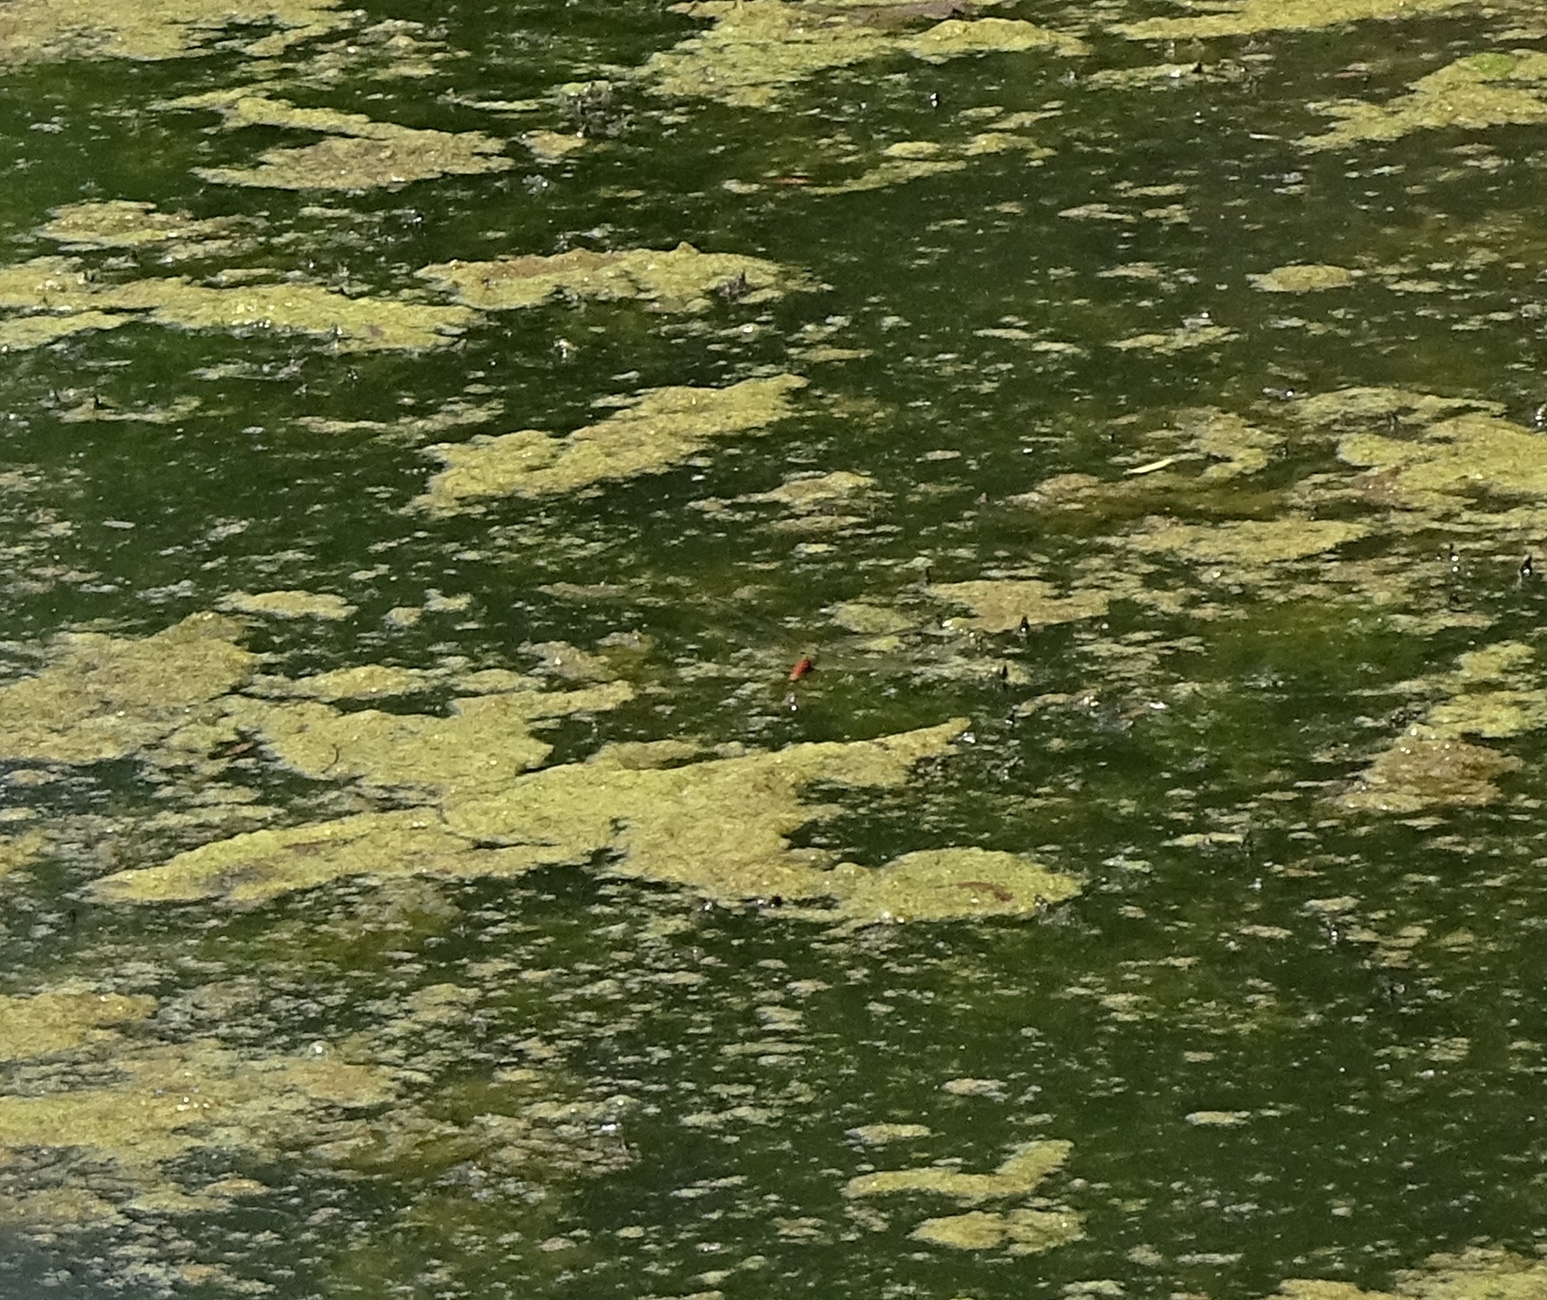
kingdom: Animalia
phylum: Arthropoda
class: Insecta
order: Odonata
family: Aeshnidae
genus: Anax
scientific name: Anax longipes
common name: Comet darner
